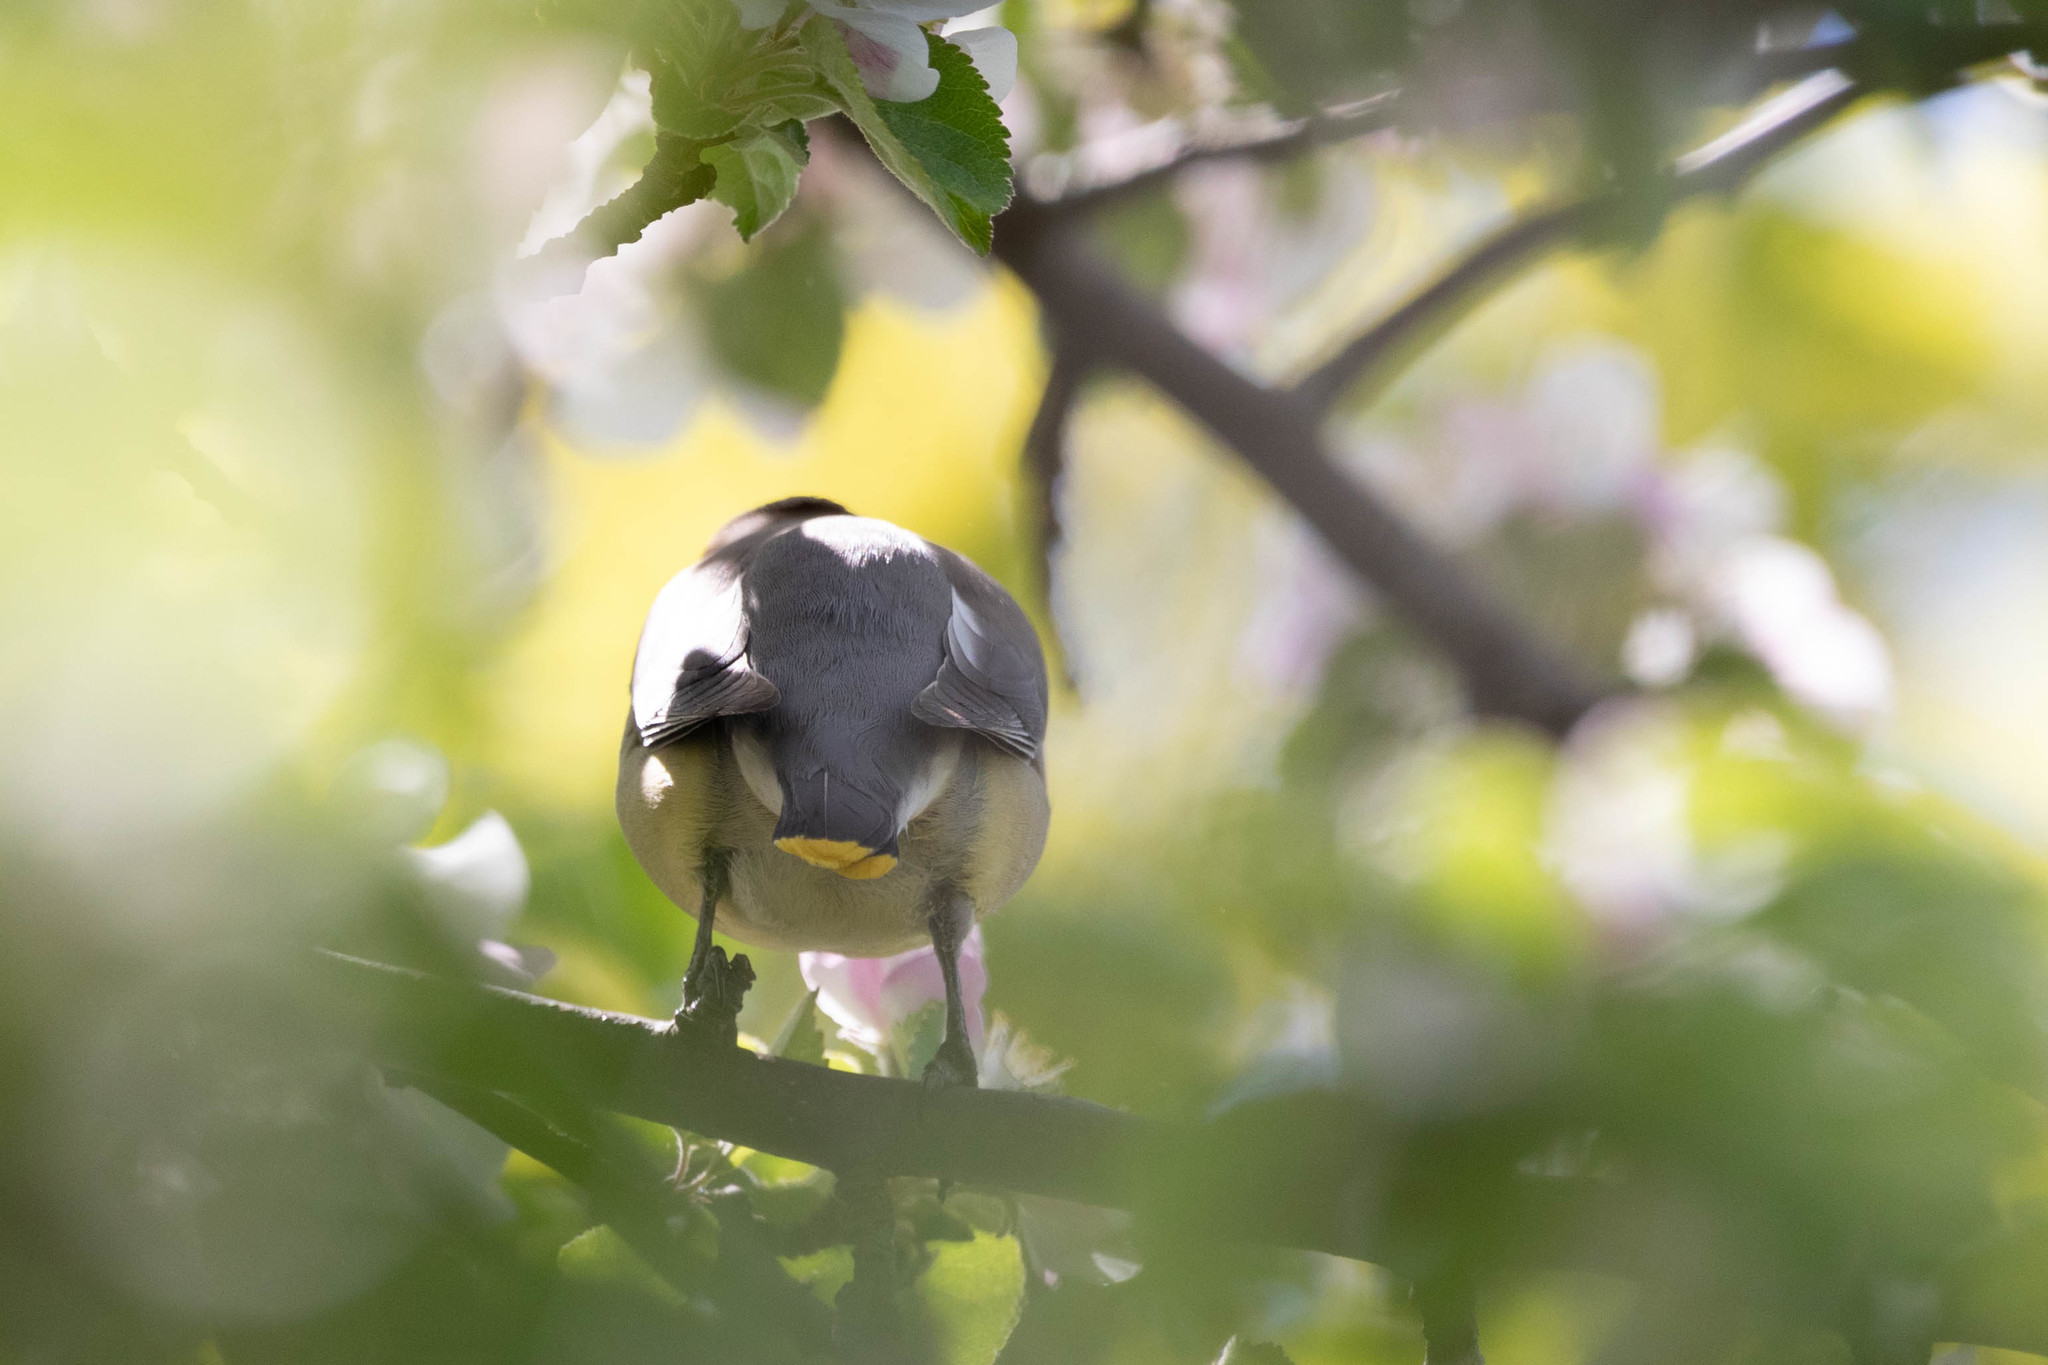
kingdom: Animalia
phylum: Chordata
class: Aves
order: Passeriformes
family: Bombycillidae
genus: Bombycilla
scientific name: Bombycilla cedrorum
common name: Cedar waxwing
